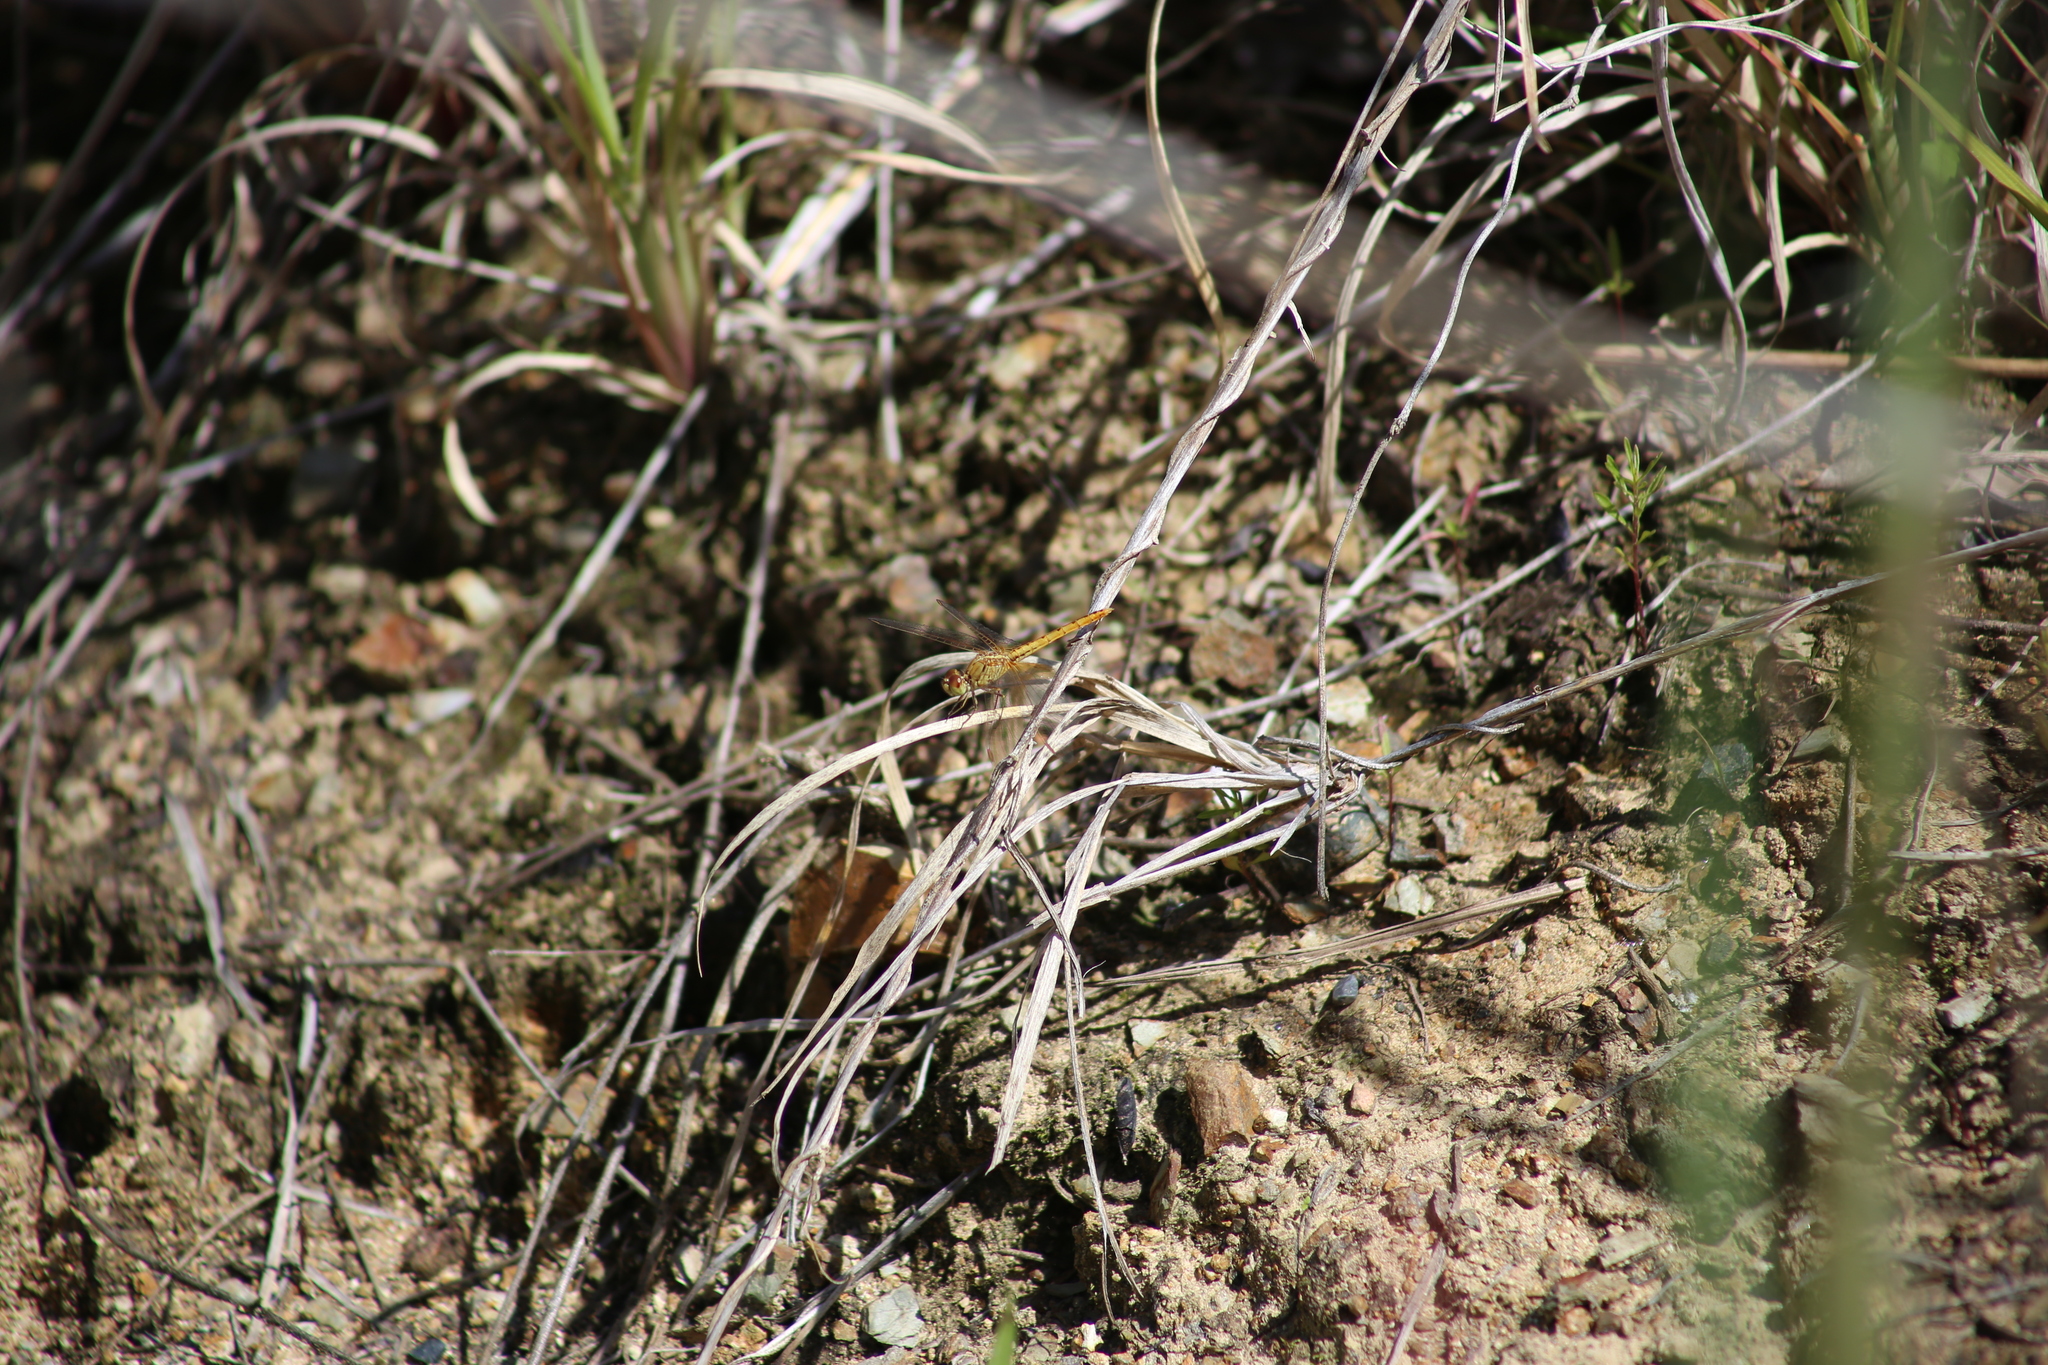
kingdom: Animalia
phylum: Arthropoda
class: Insecta
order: Odonata
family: Libellulidae
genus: Diplacodes
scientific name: Diplacodes haematodes
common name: Scarlet percher
